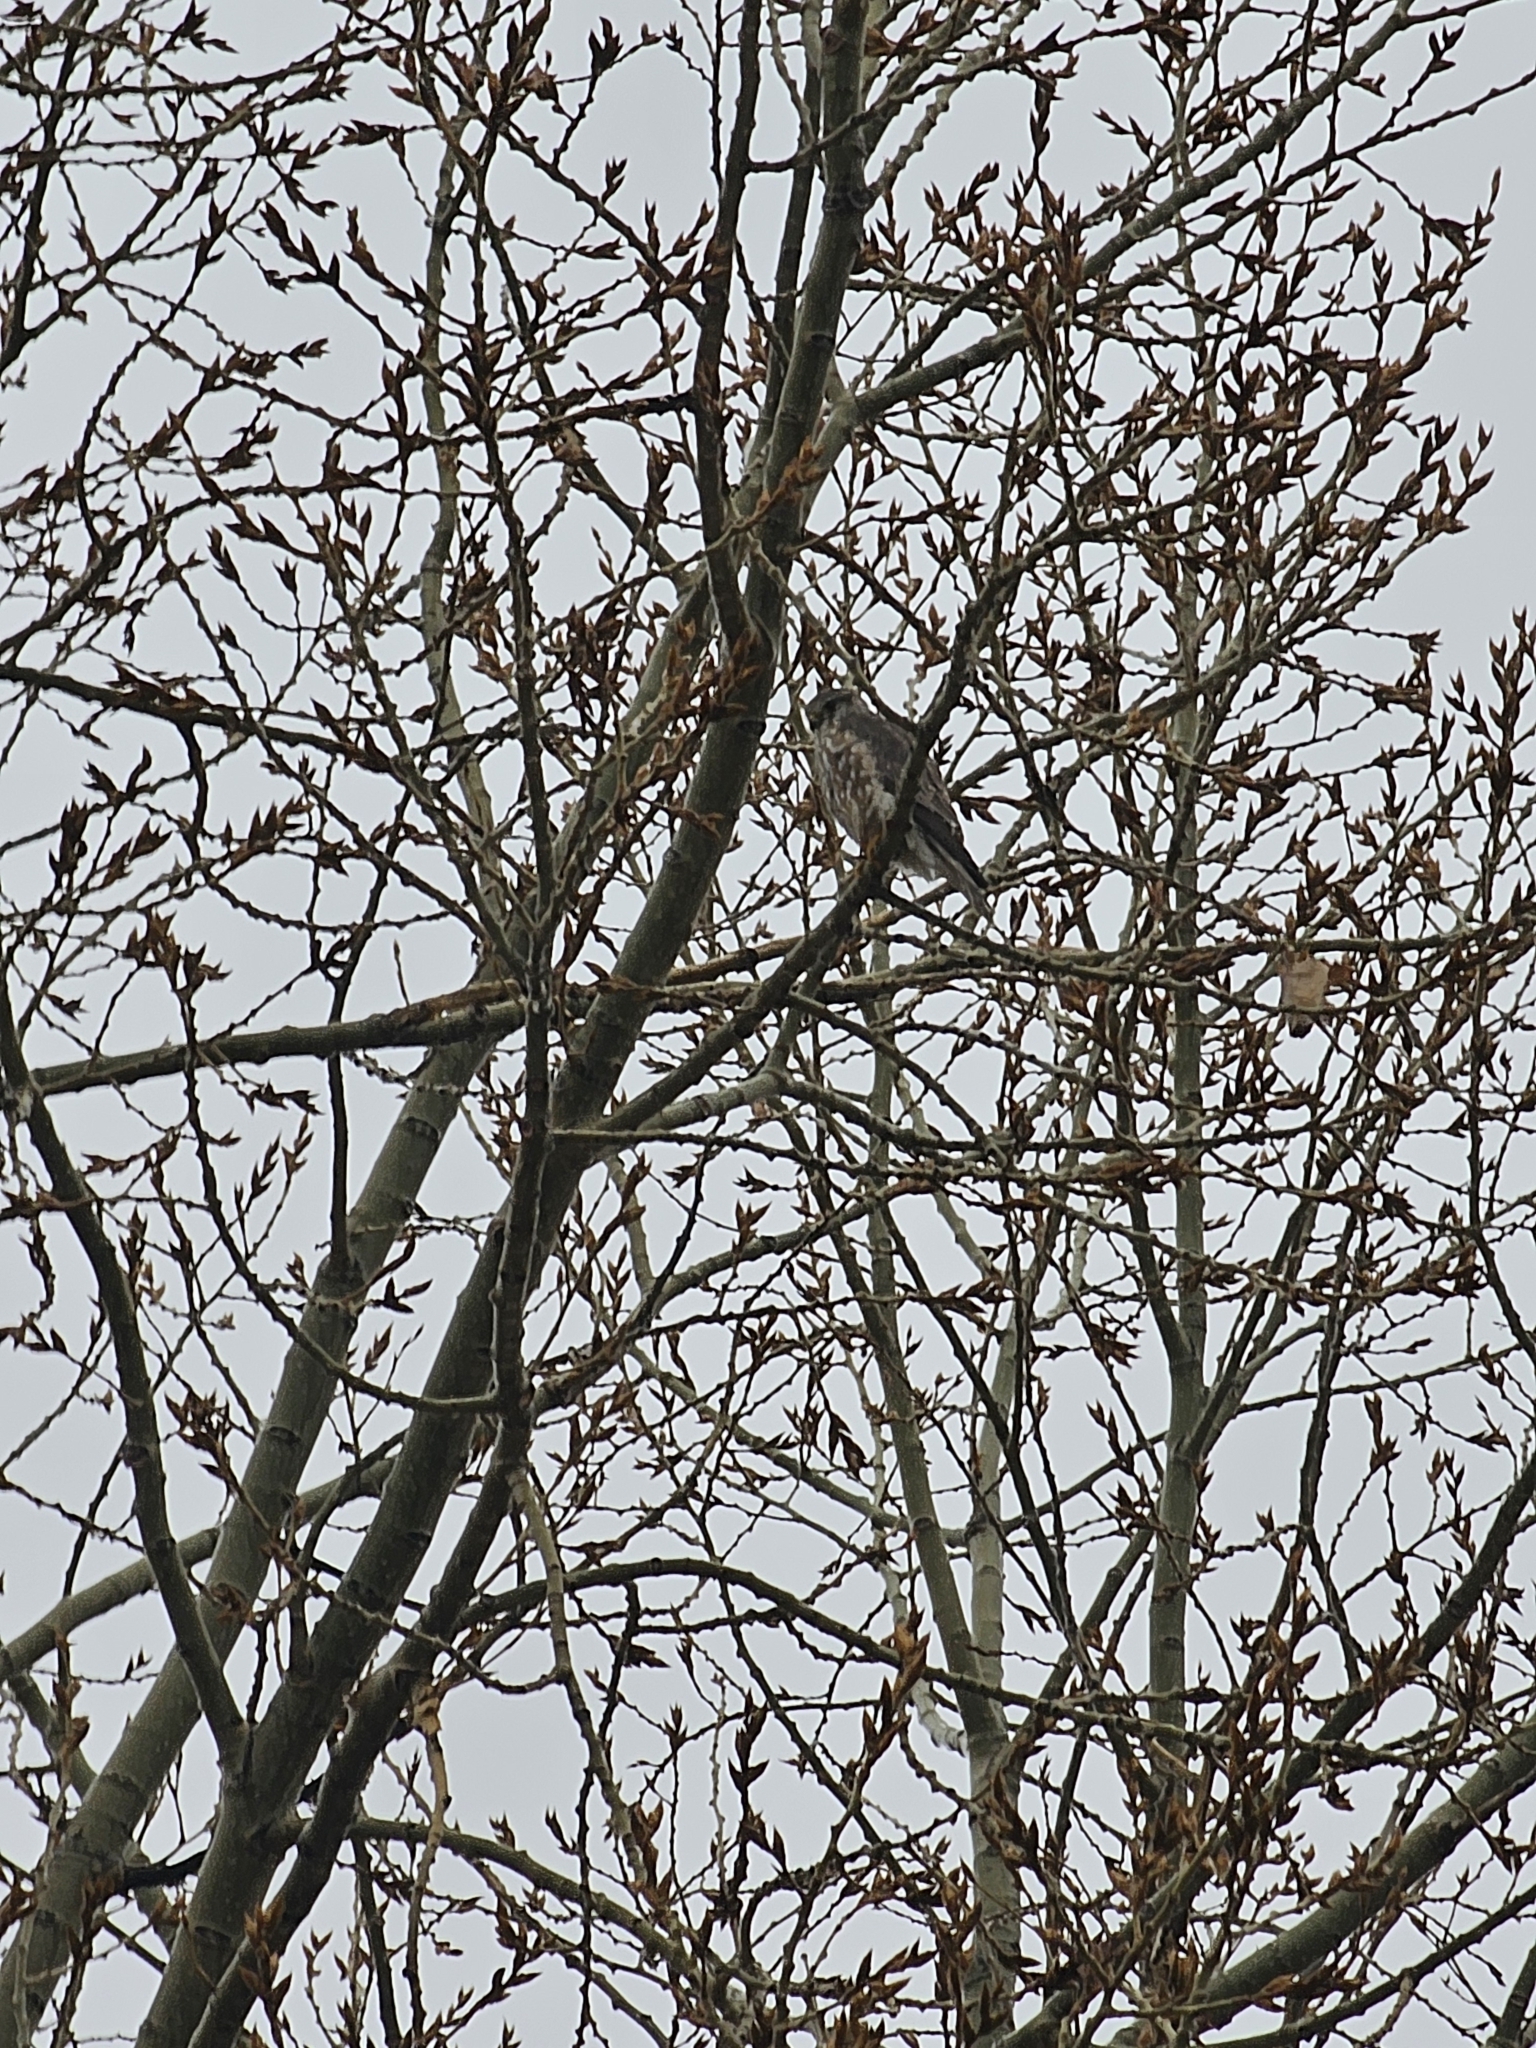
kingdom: Animalia
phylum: Chordata
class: Aves
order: Falconiformes
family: Falconidae
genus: Falco
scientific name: Falco columbarius
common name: Merlin
